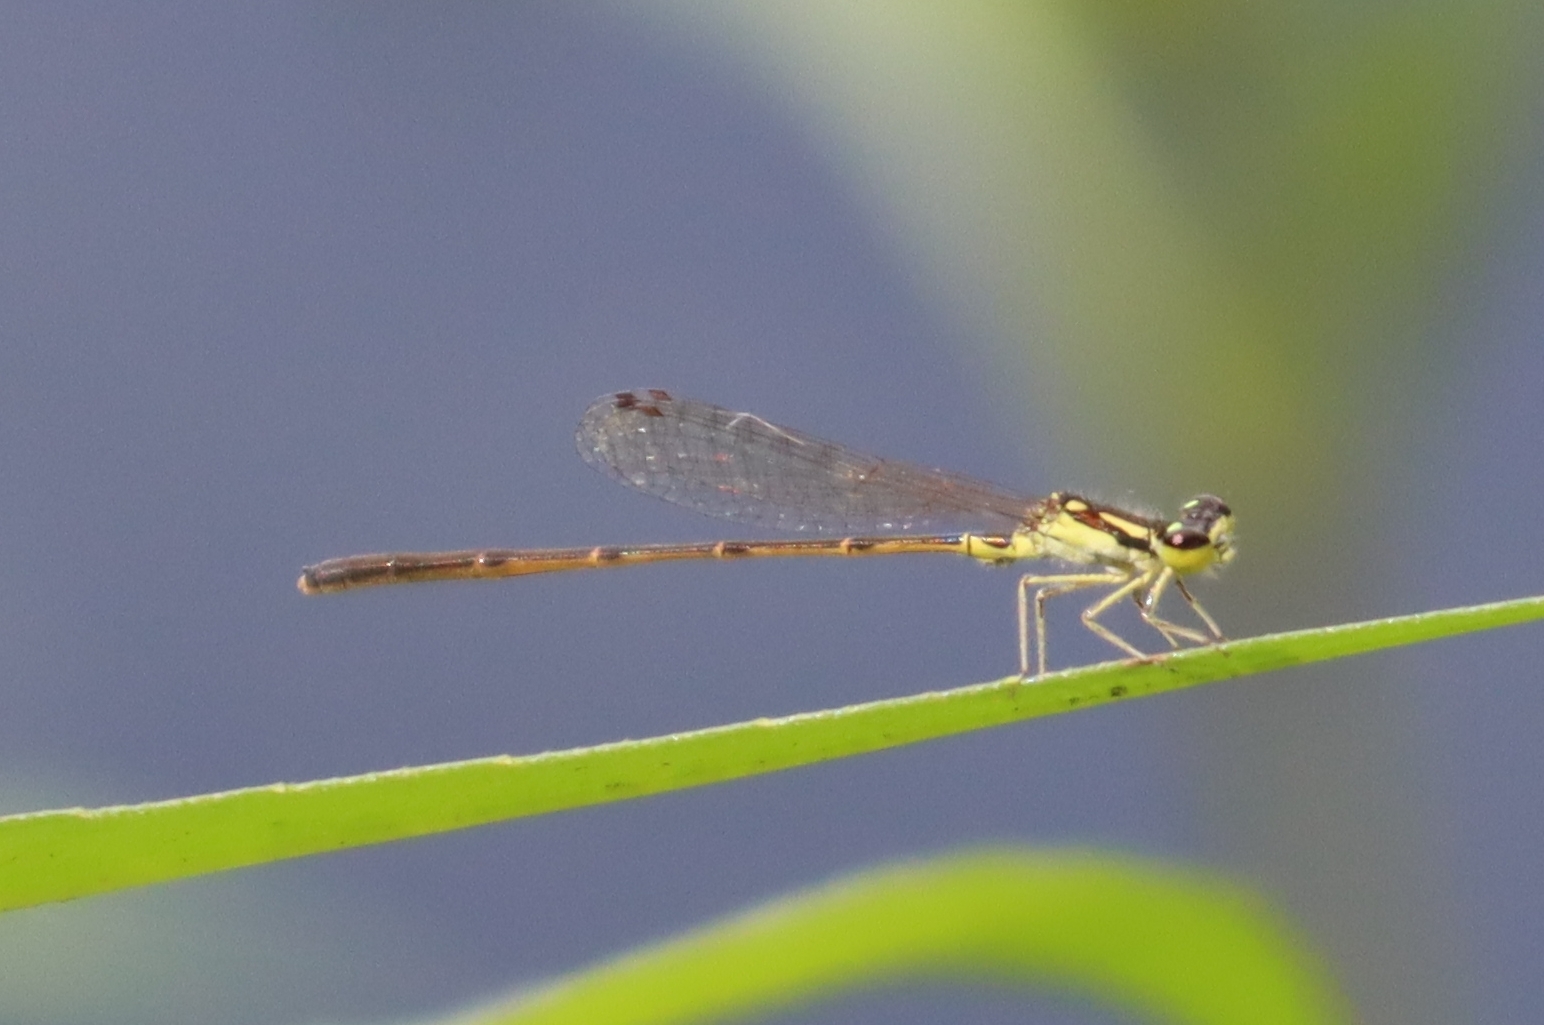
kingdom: Animalia
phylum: Arthropoda
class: Insecta
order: Odonata
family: Coenagrionidae
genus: Ischnura
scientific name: Ischnura posita
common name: Fragile forktail
